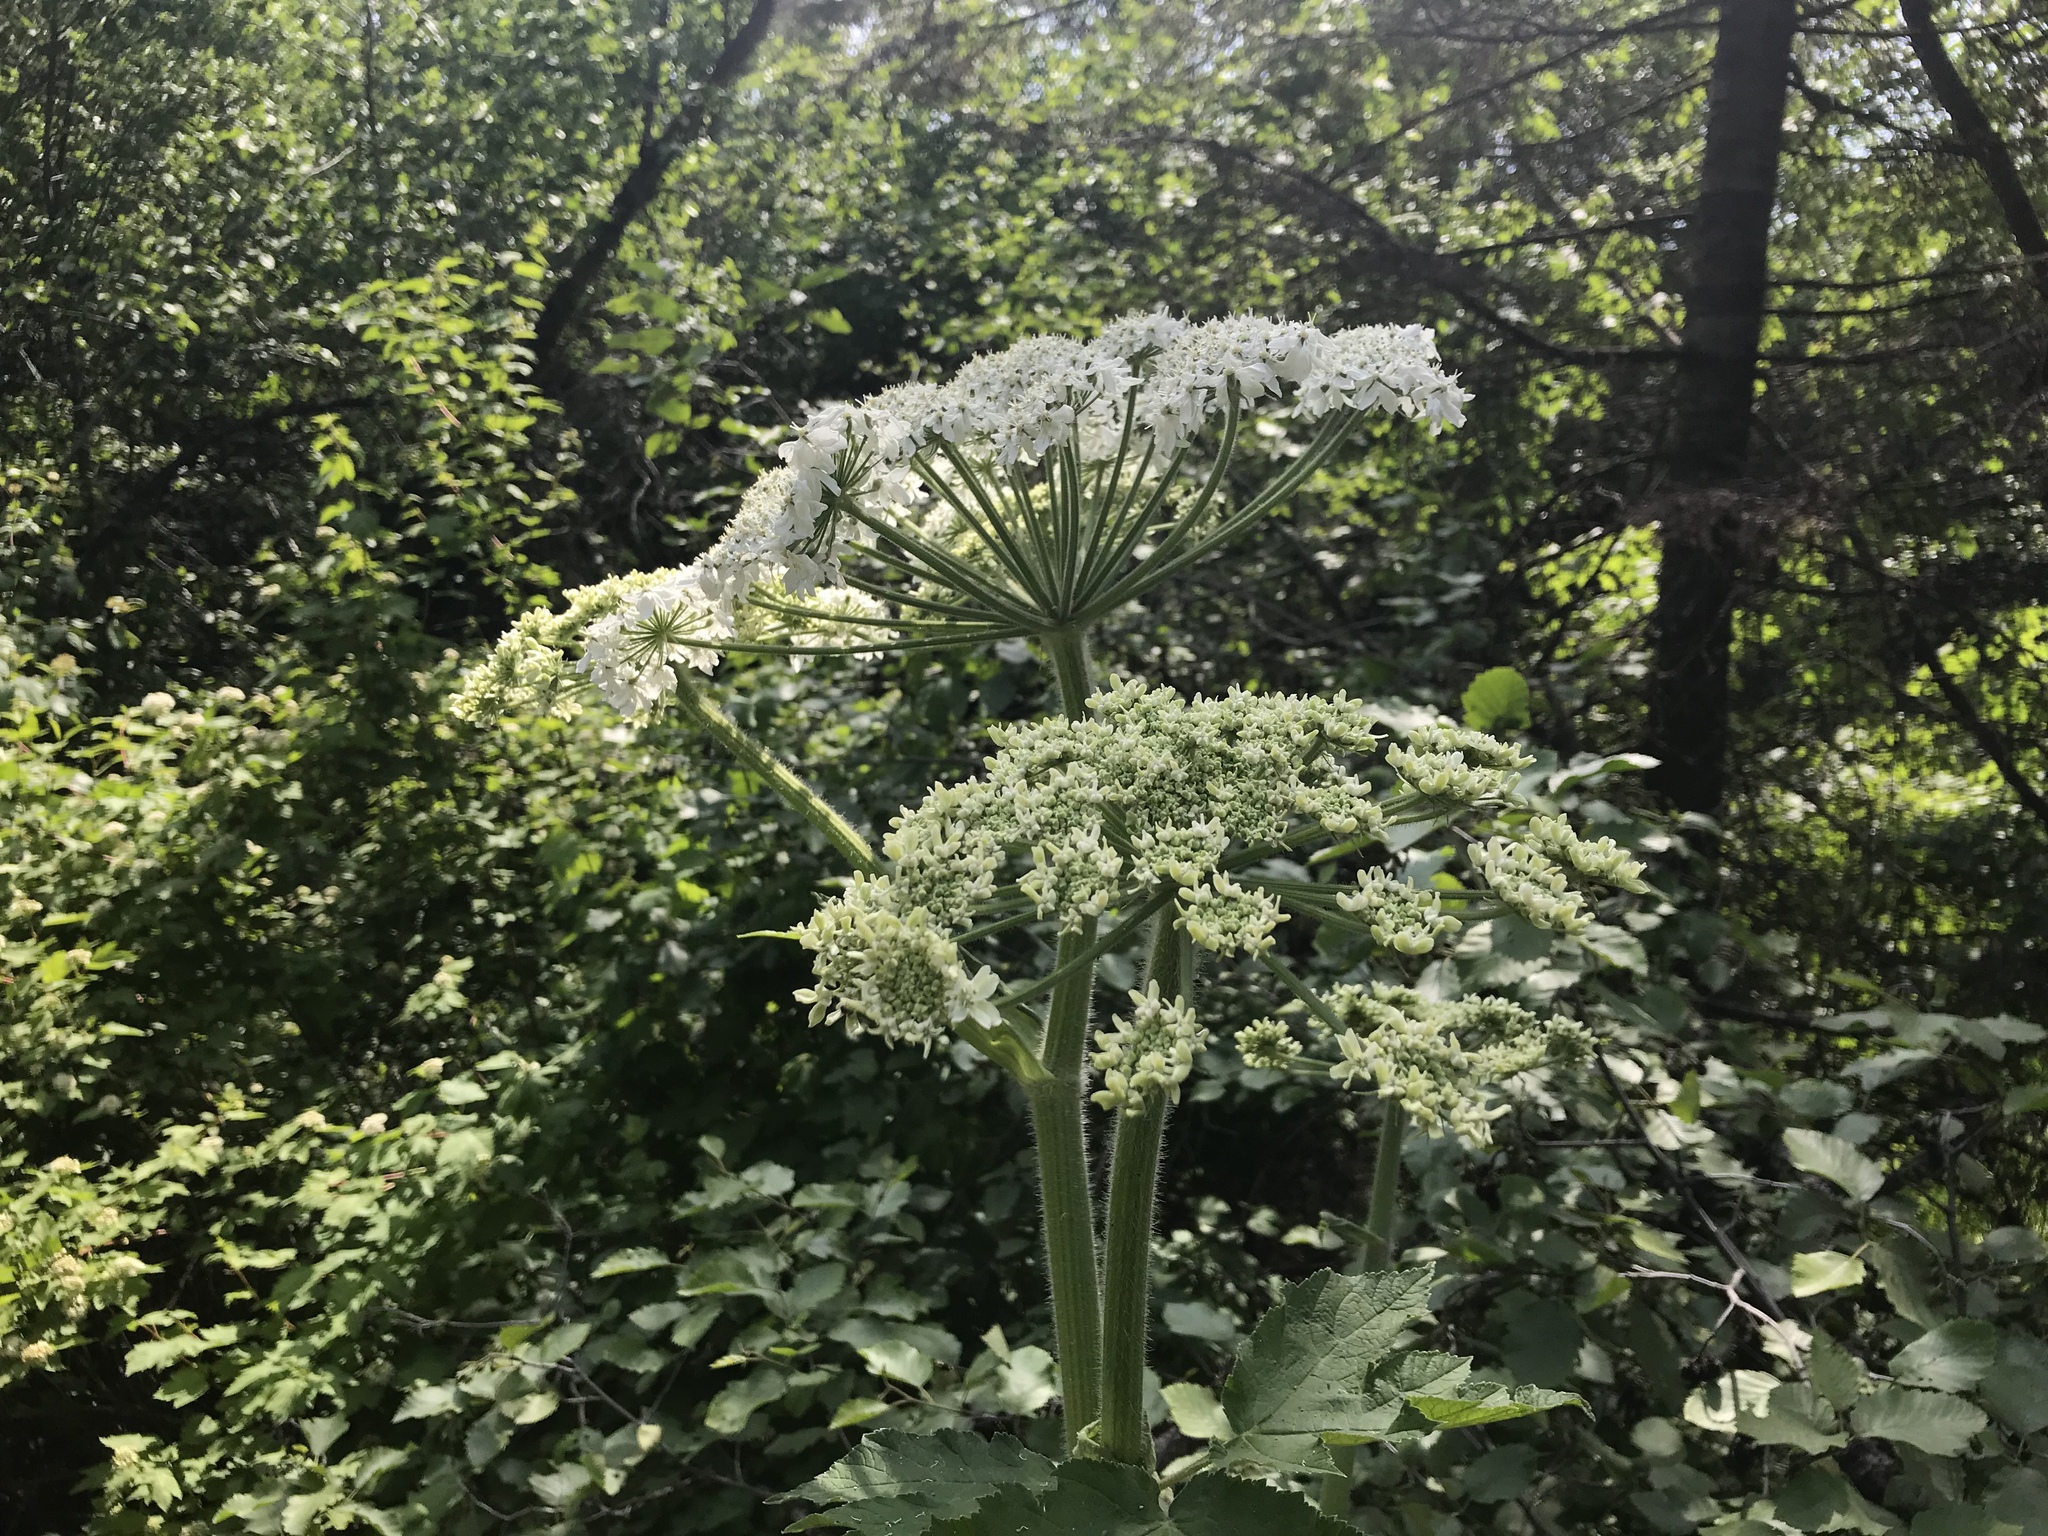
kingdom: Plantae
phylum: Tracheophyta
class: Magnoliopsida
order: Apiales
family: Apiaceae
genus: Heracleum
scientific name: Heracleum maximum
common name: American cow parsnip
